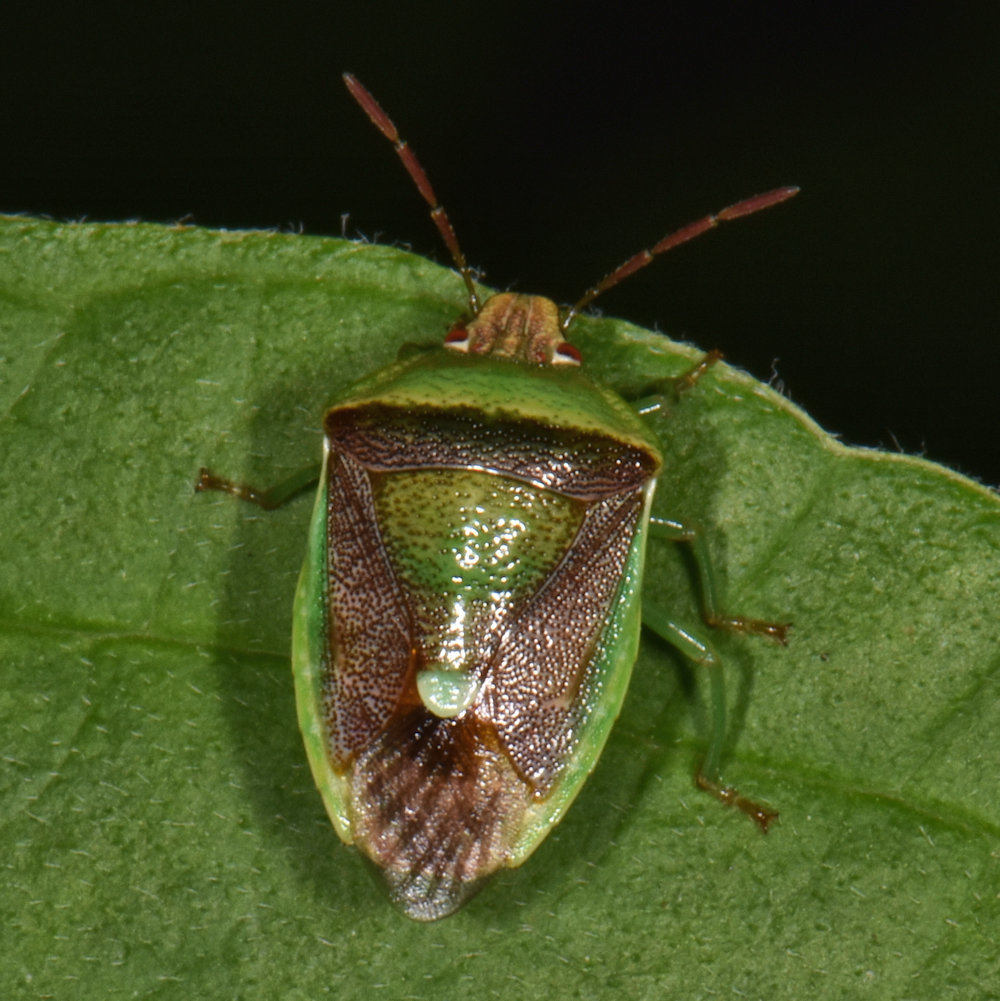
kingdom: Animalia
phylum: Arthropoda
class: Insecta
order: Hemiptera
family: Pentatomidae
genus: Banasa
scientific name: Banasa dimidiata
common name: Green burgundy stink bug
